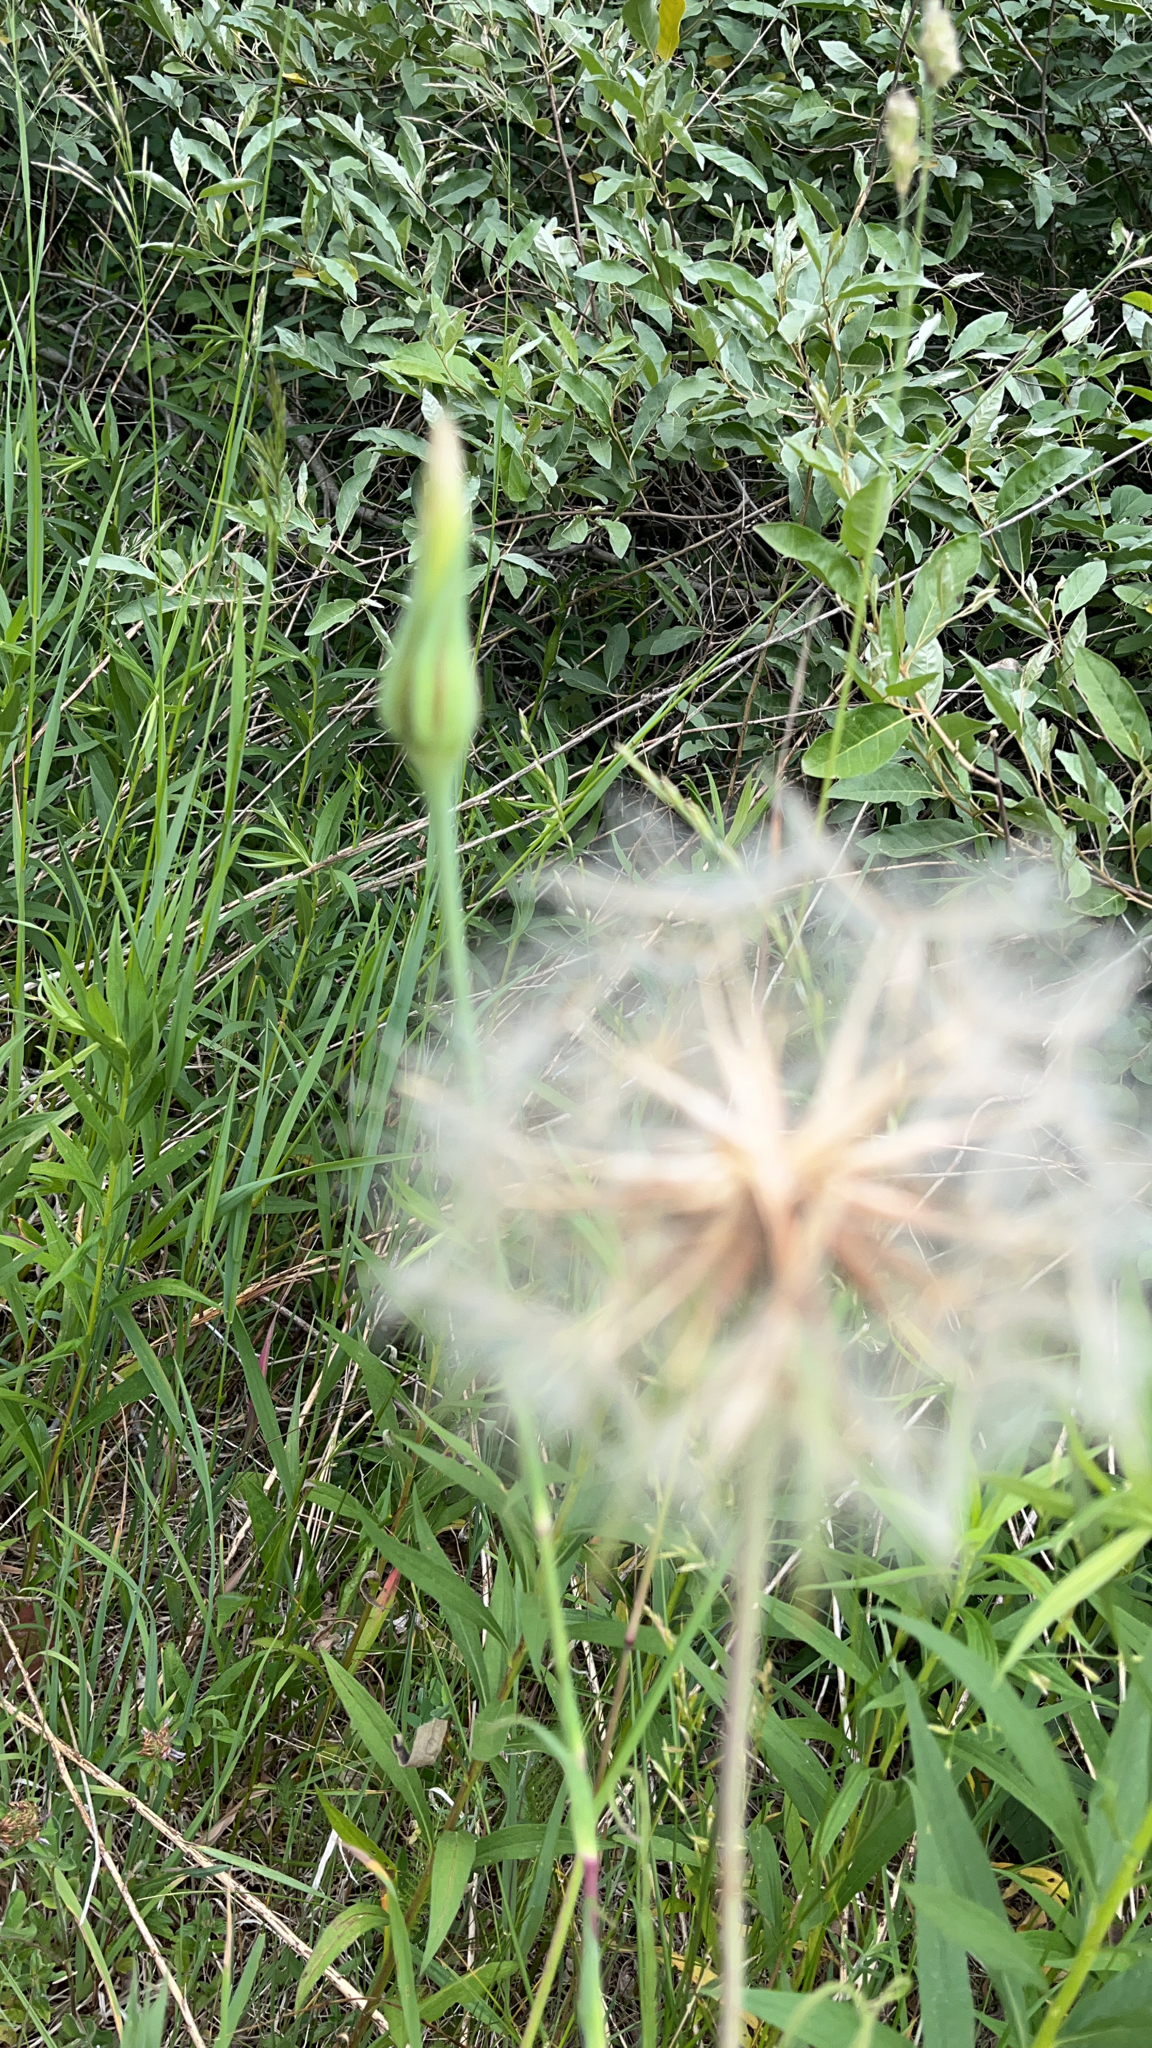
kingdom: Plantae
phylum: Tracheophyta
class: Magnoliopsida
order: Asterales
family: Asteraceae
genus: Tragopogon
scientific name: Tragopogon pratensis
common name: Goat's-beard
